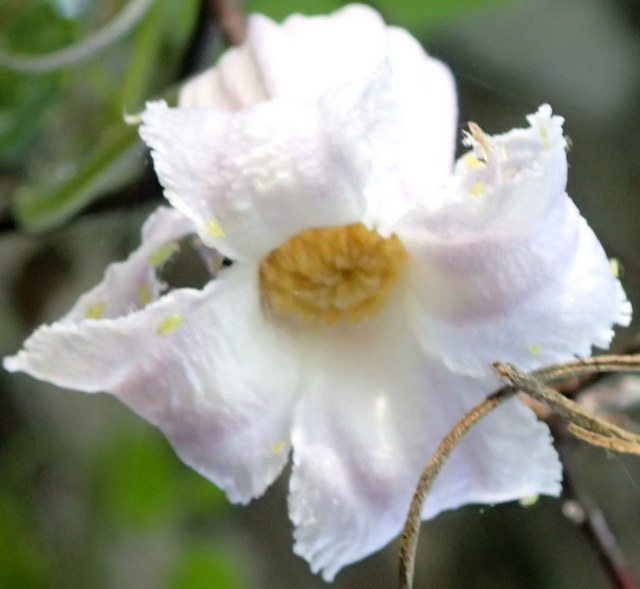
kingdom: Plantae
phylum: Tracheophyta
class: Magnoliopsida
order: Ranunculales
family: Ranunculaceae
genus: Clematis
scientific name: Clematis crispa
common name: Curly clematis
